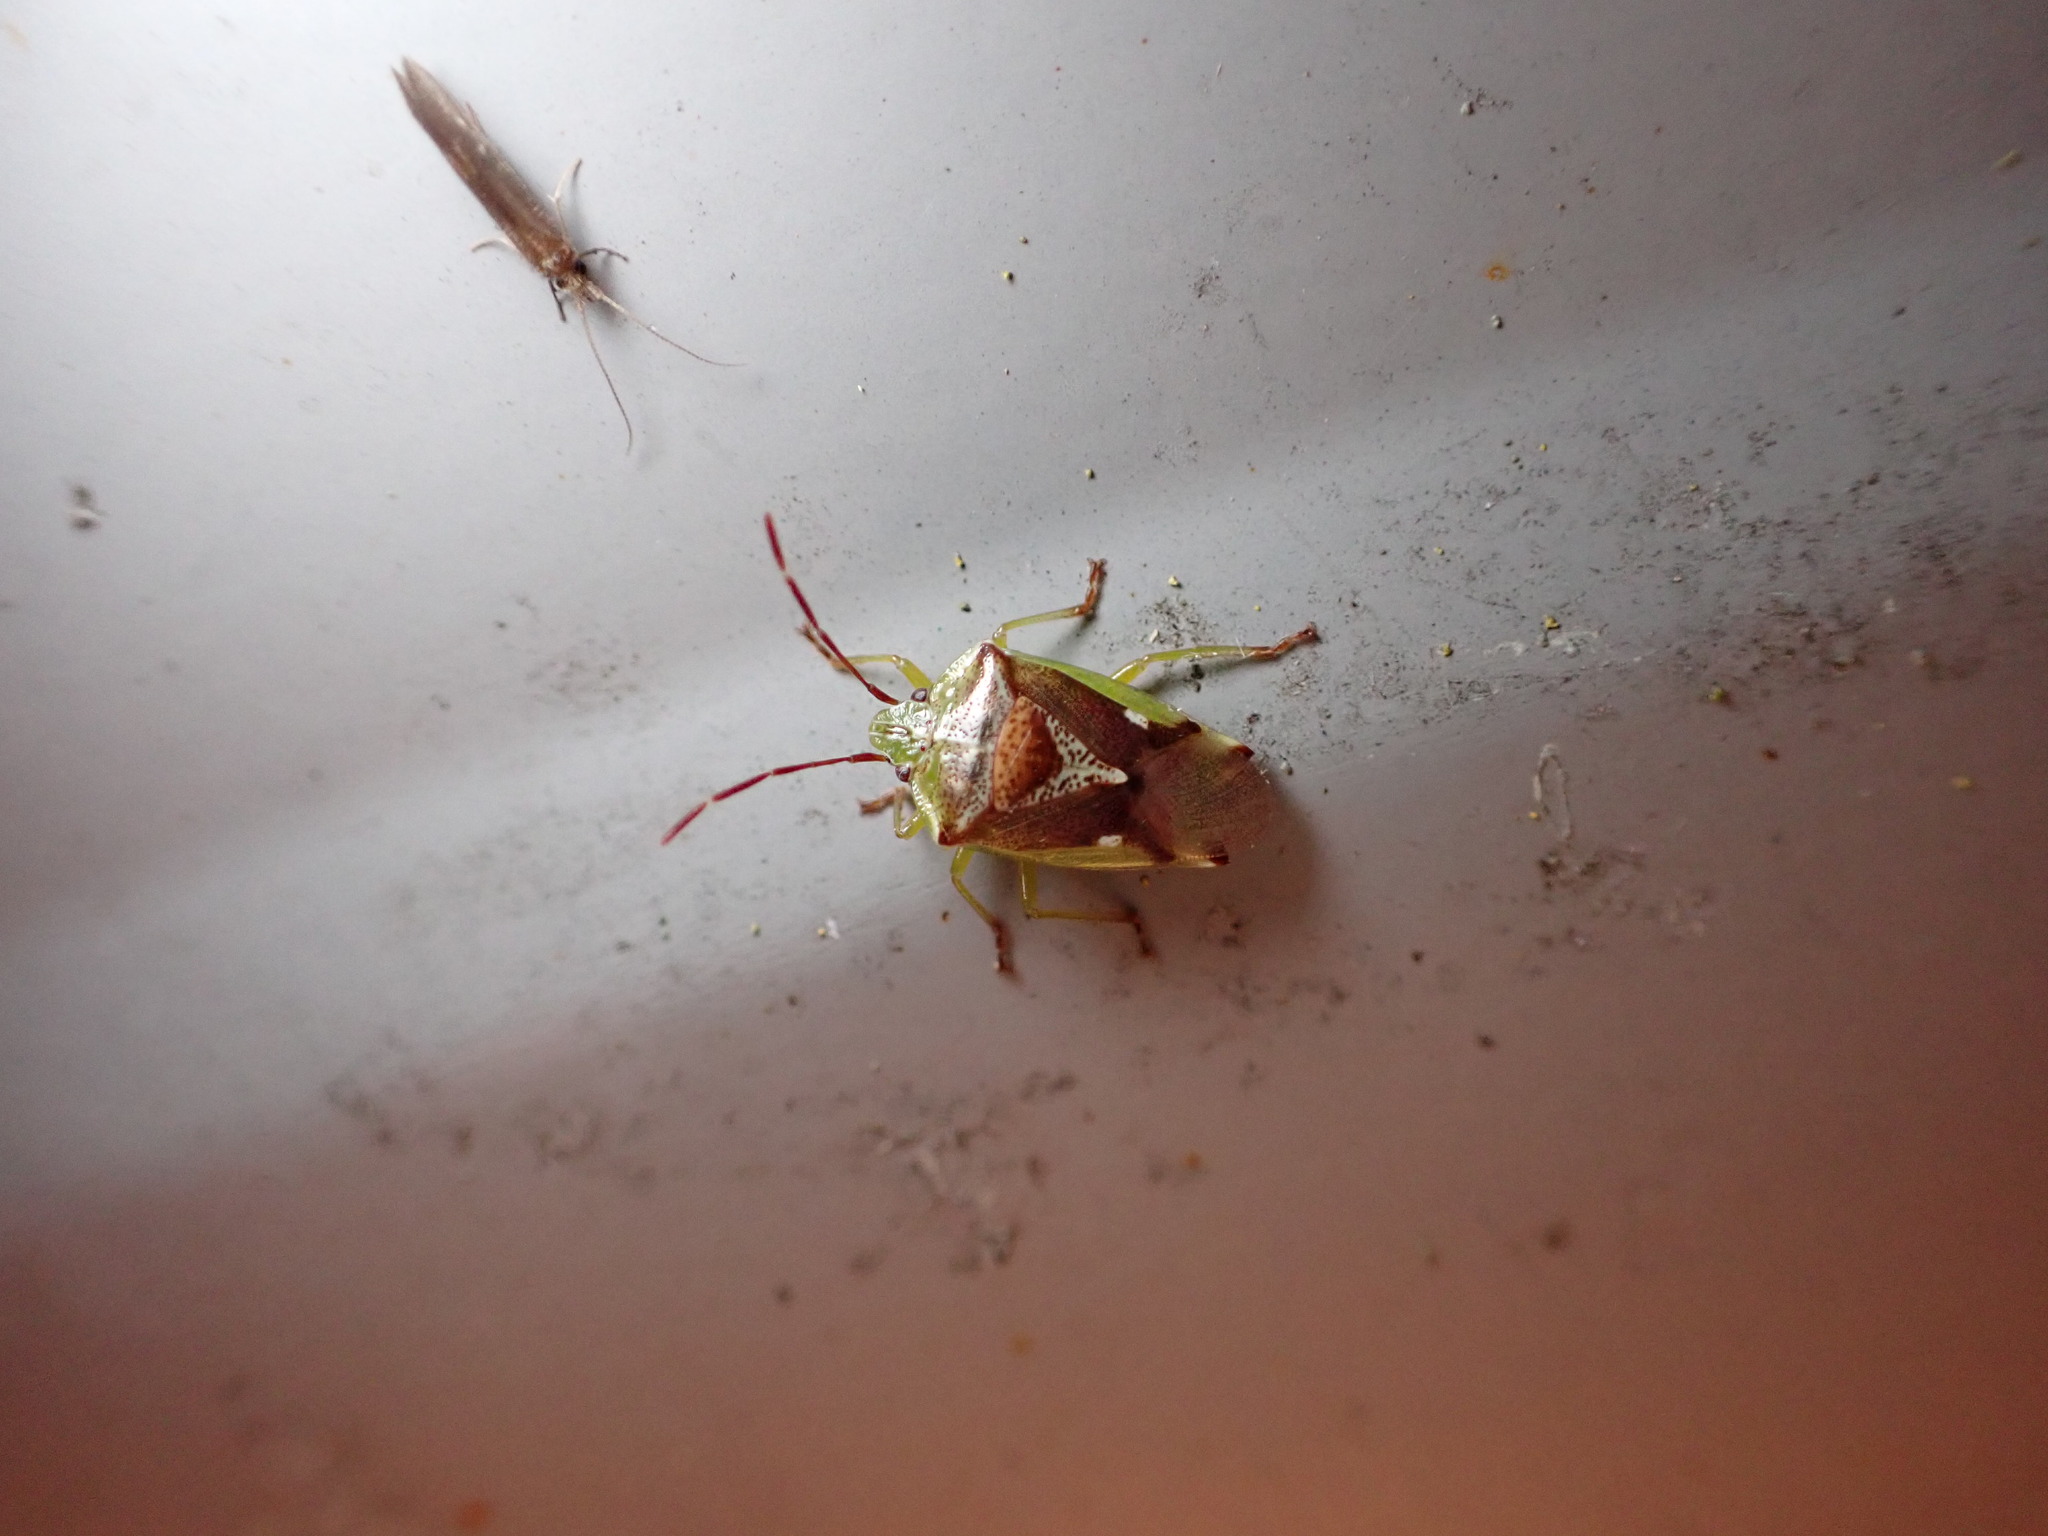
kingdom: Animalia
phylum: Arthropoda
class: Insecta
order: Hemiptera
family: Acanthosomatidae
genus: Oncacontias
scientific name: Oncacontias vittatus
